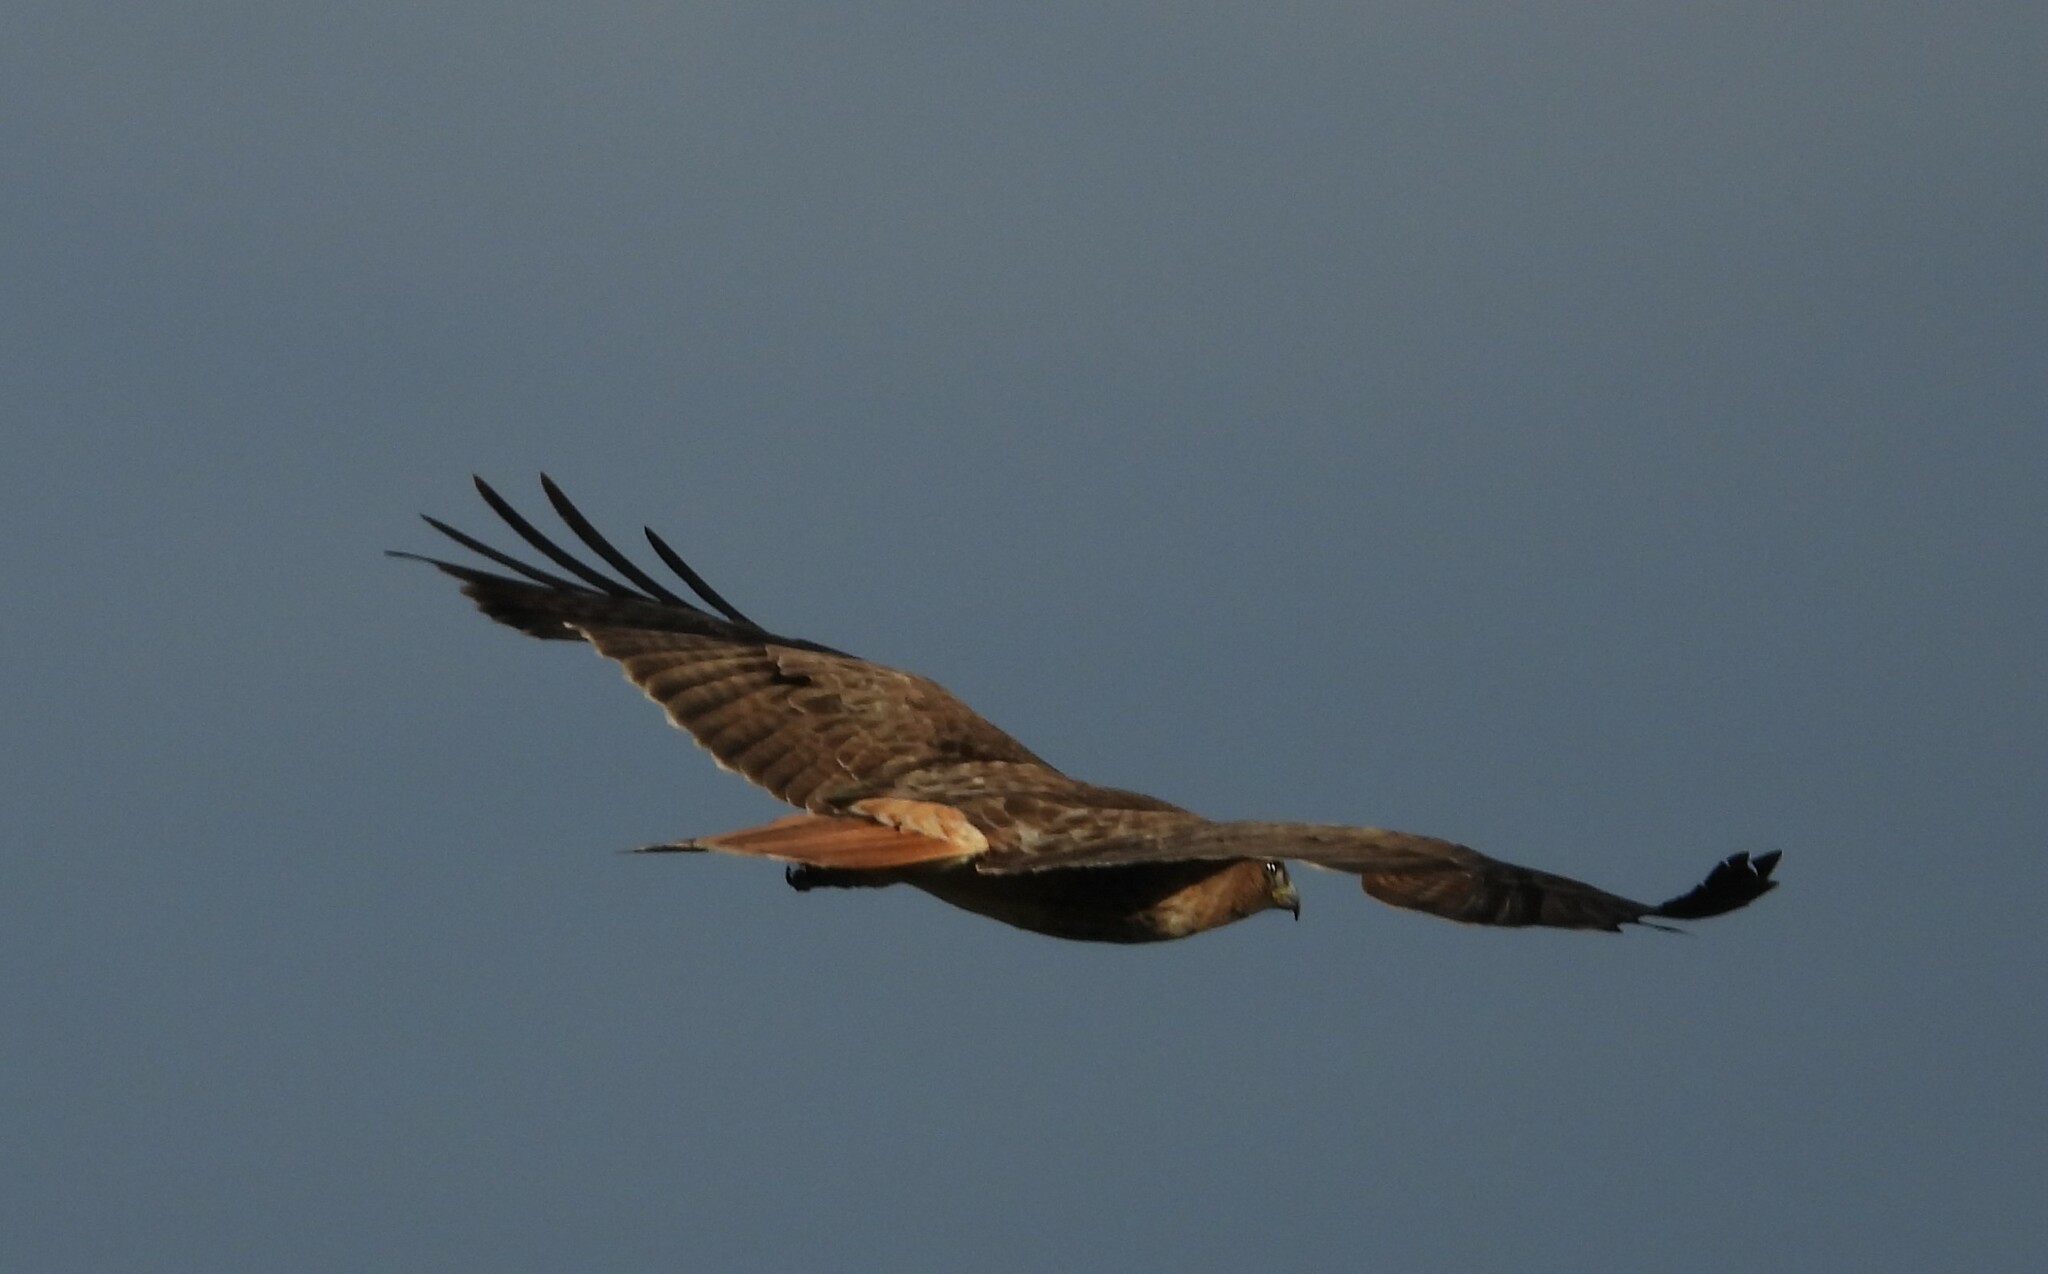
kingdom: Animalia
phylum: Chordata
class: Aves
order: Accipitriformes
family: Accipitridae
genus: Buteo
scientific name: Buteo jamaicensis
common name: Red-tailed hawk
